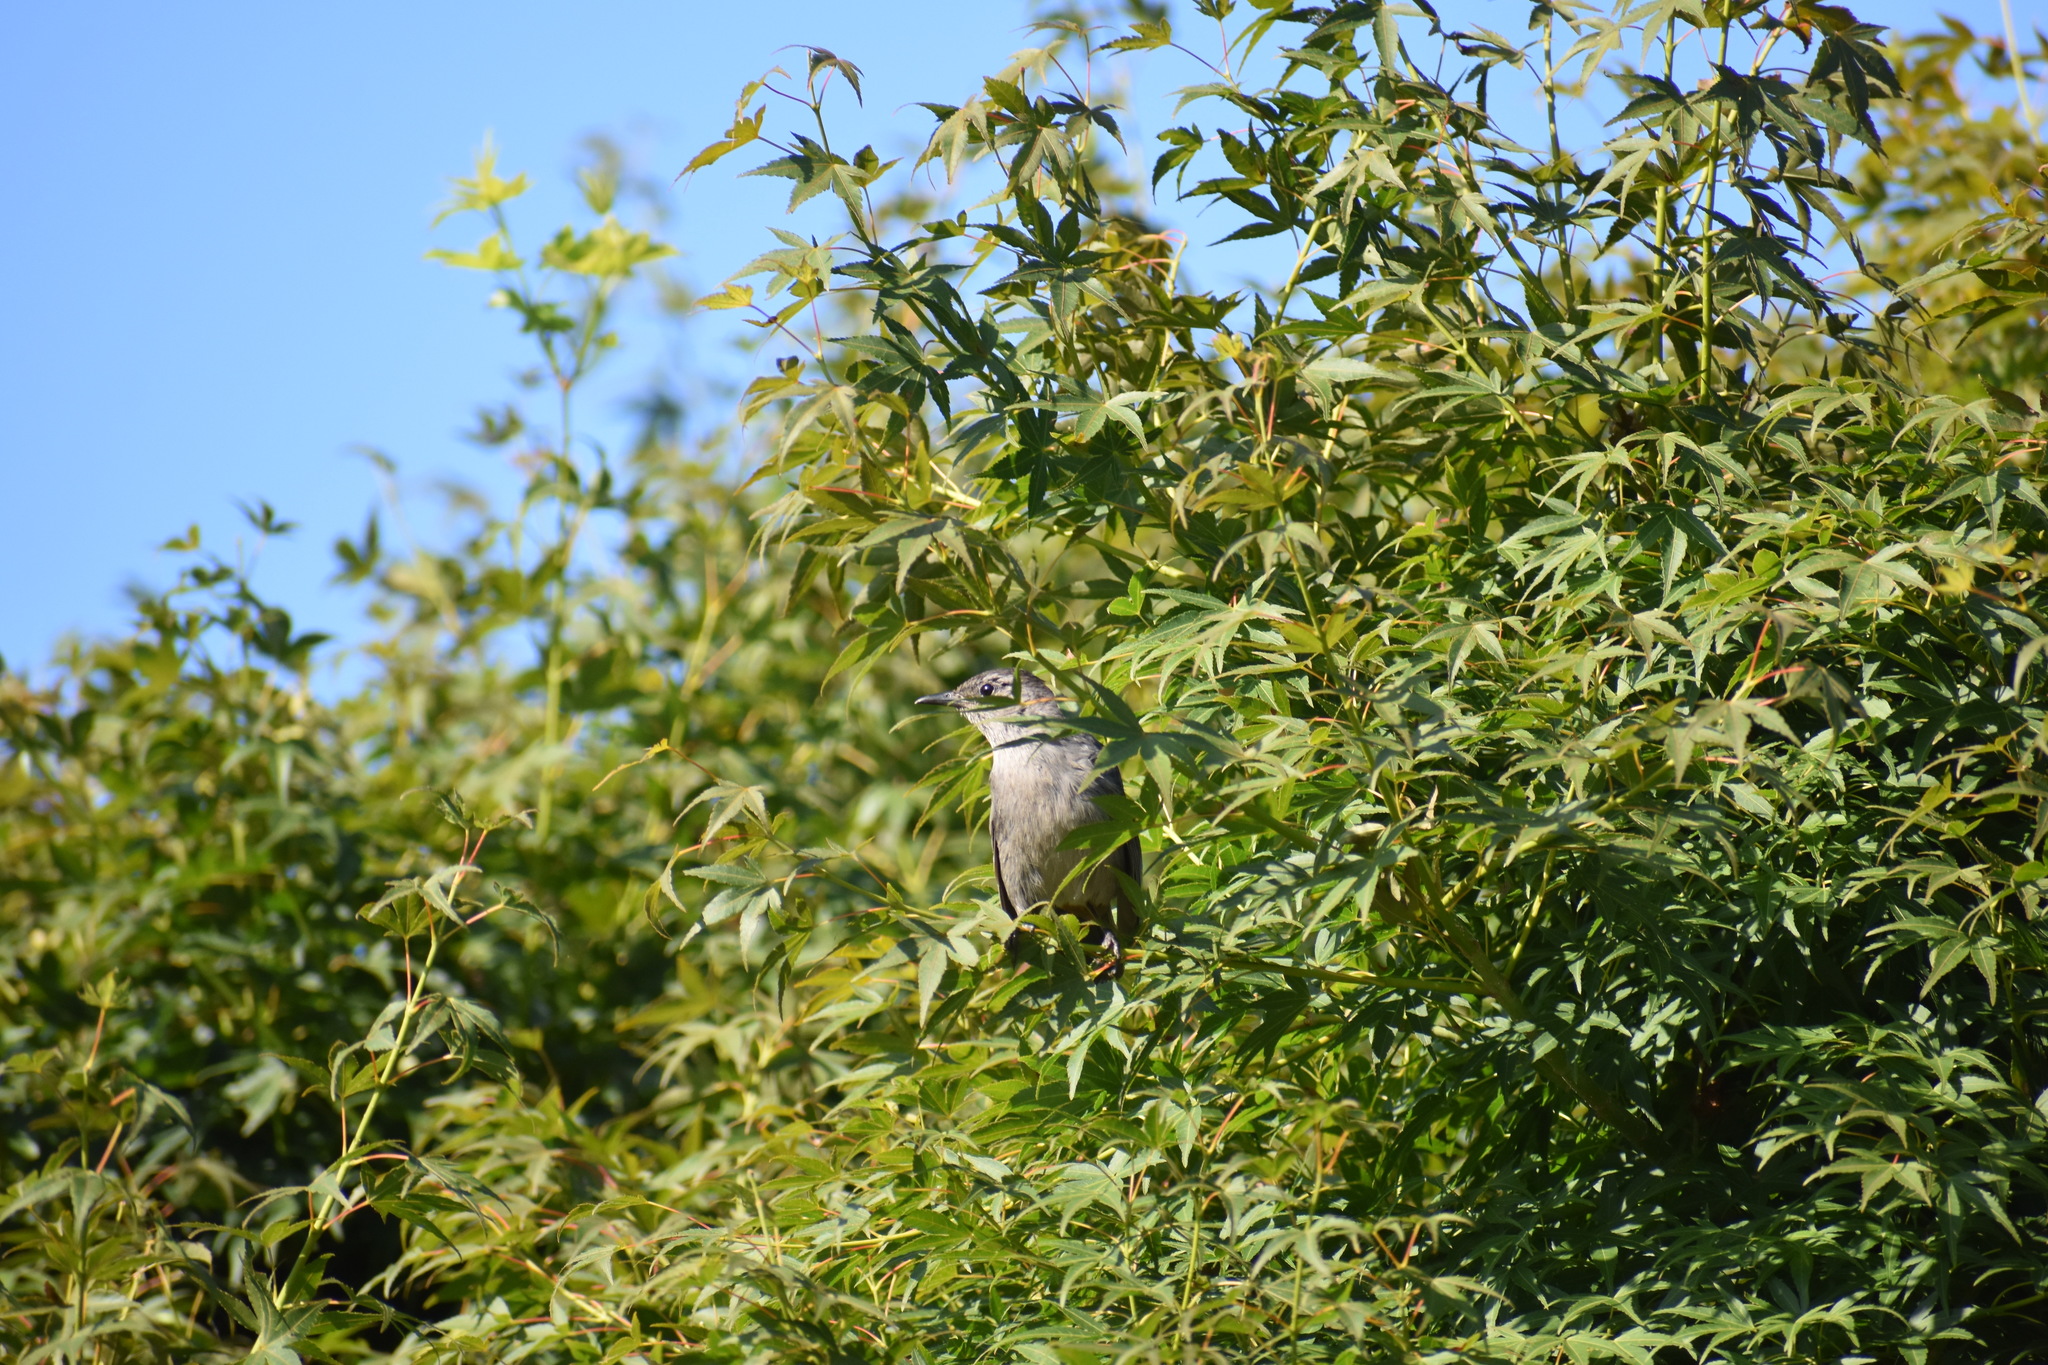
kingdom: Animalia
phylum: Chordata
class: Aves
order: Passeriformes
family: Mimidae
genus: Dumetella
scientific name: Dumetella carolinensis
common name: Gray catbird
